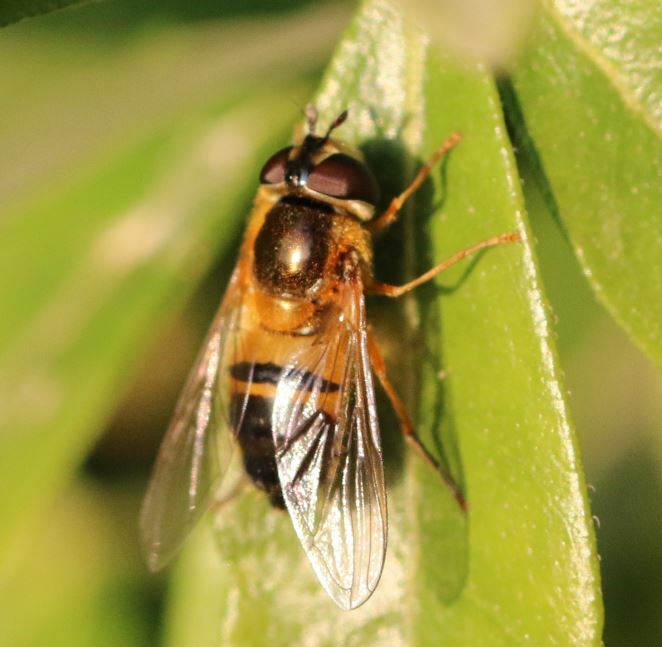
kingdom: Animalia
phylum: Arthropoda
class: Insecta
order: Diptera
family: Syrphidae
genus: Epistrophe
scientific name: Epistrophe eligans
